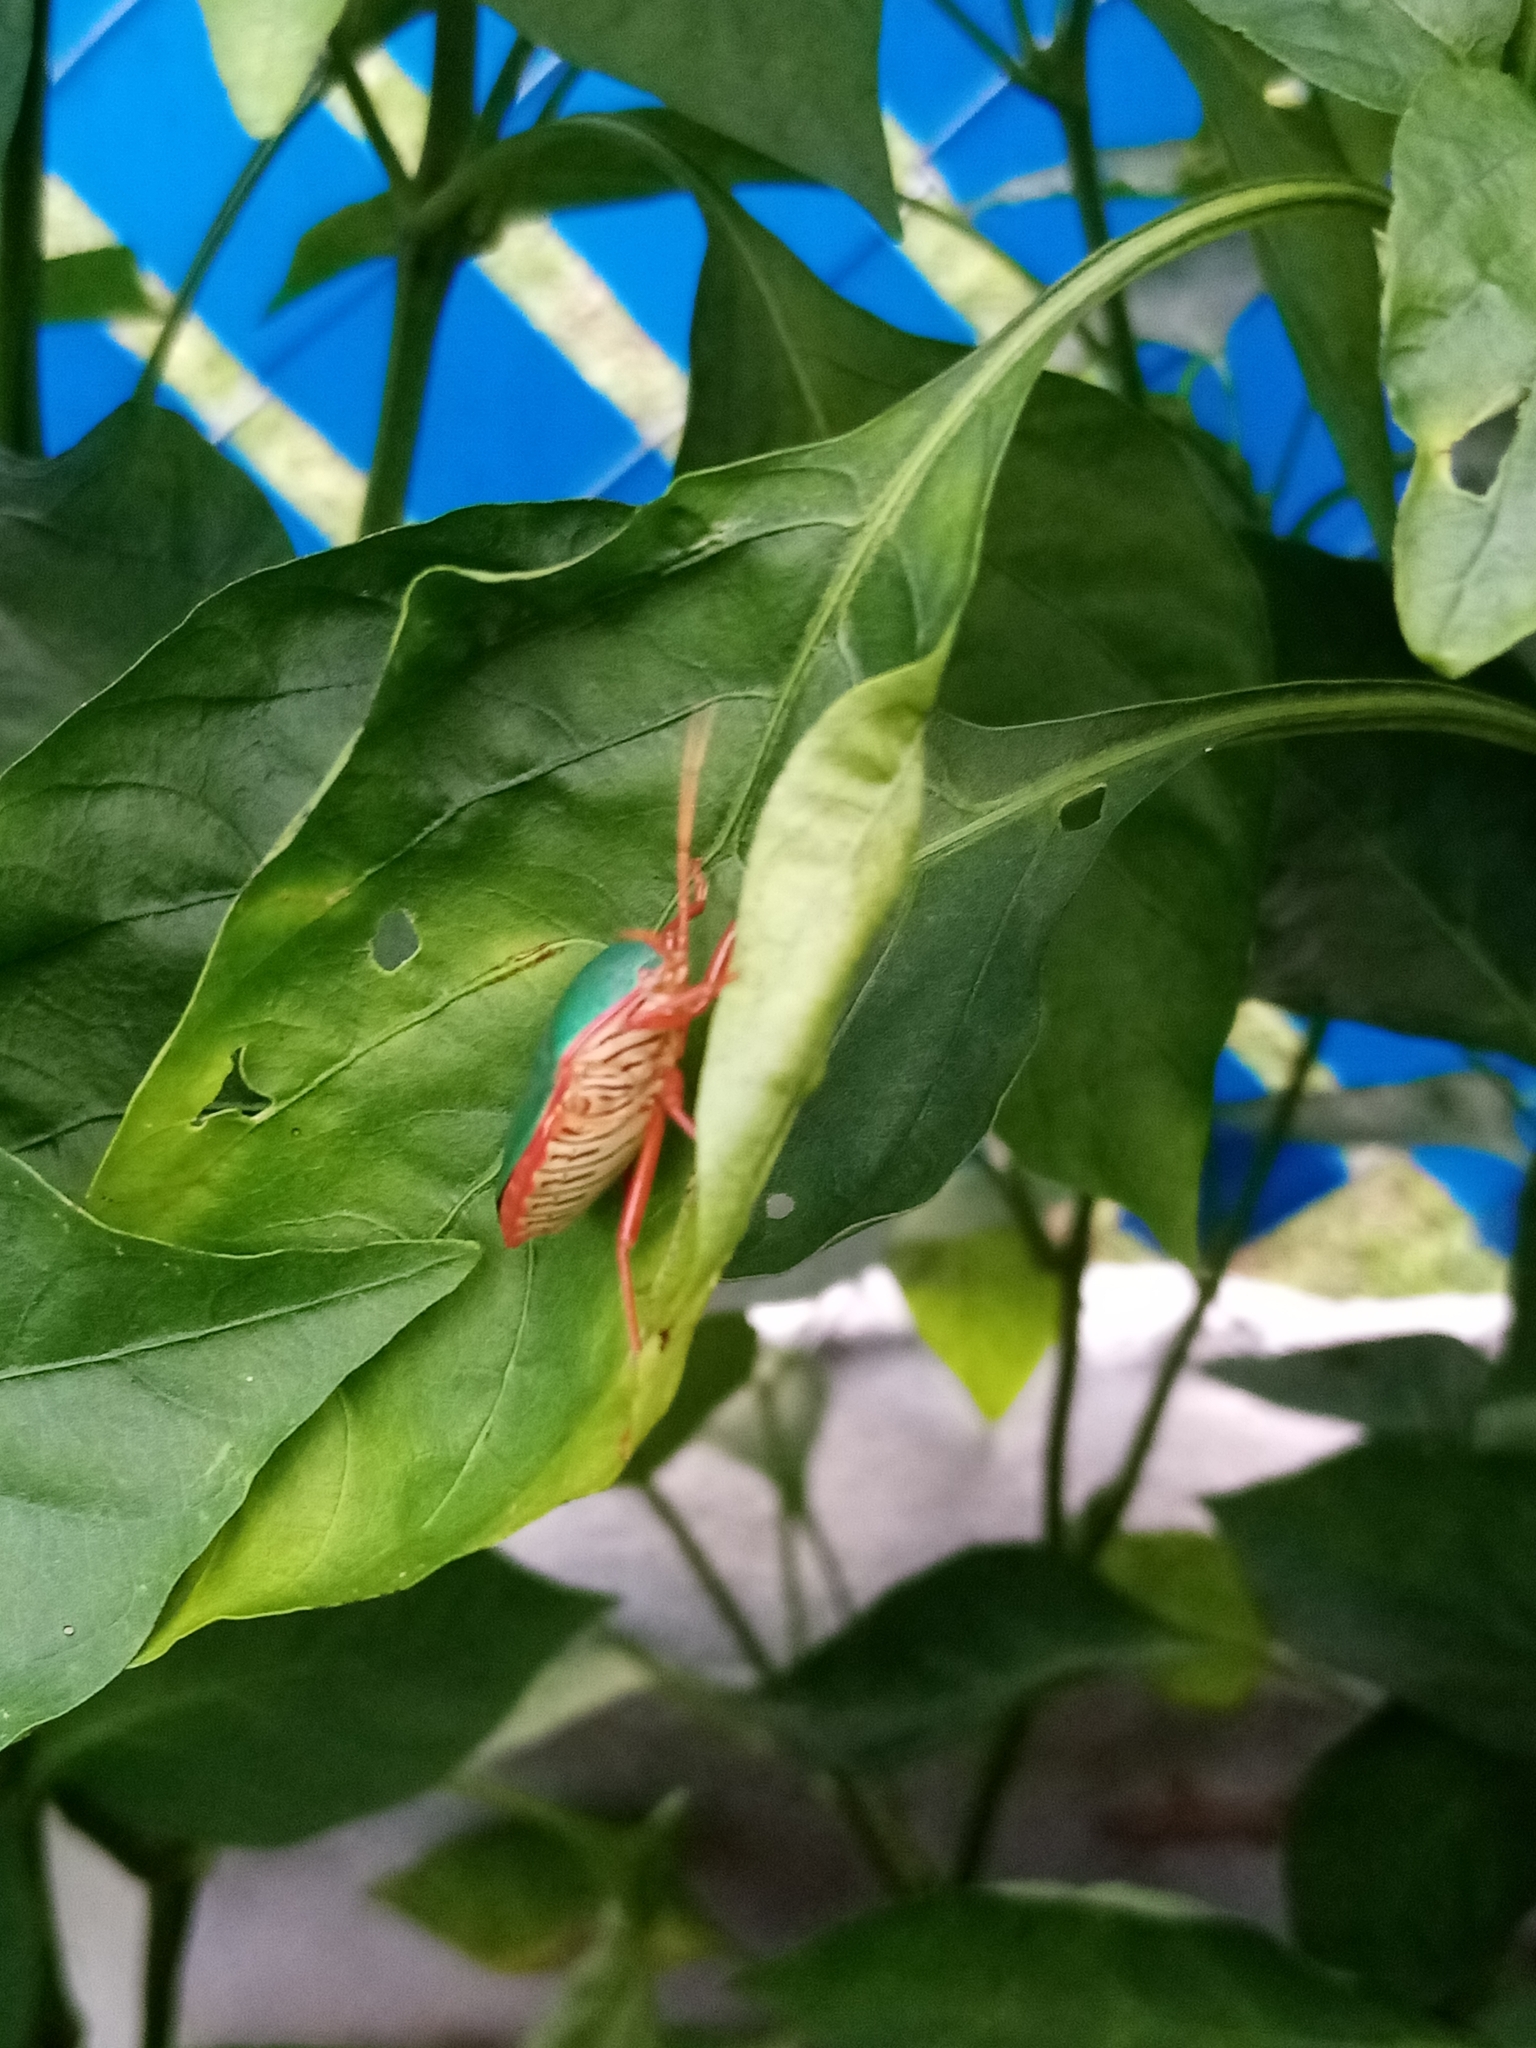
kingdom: Animalia
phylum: Arthropoda
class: Insecta
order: Hemiptera
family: Pentatomidae
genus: Edessa
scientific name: Edessa rufomarginata
